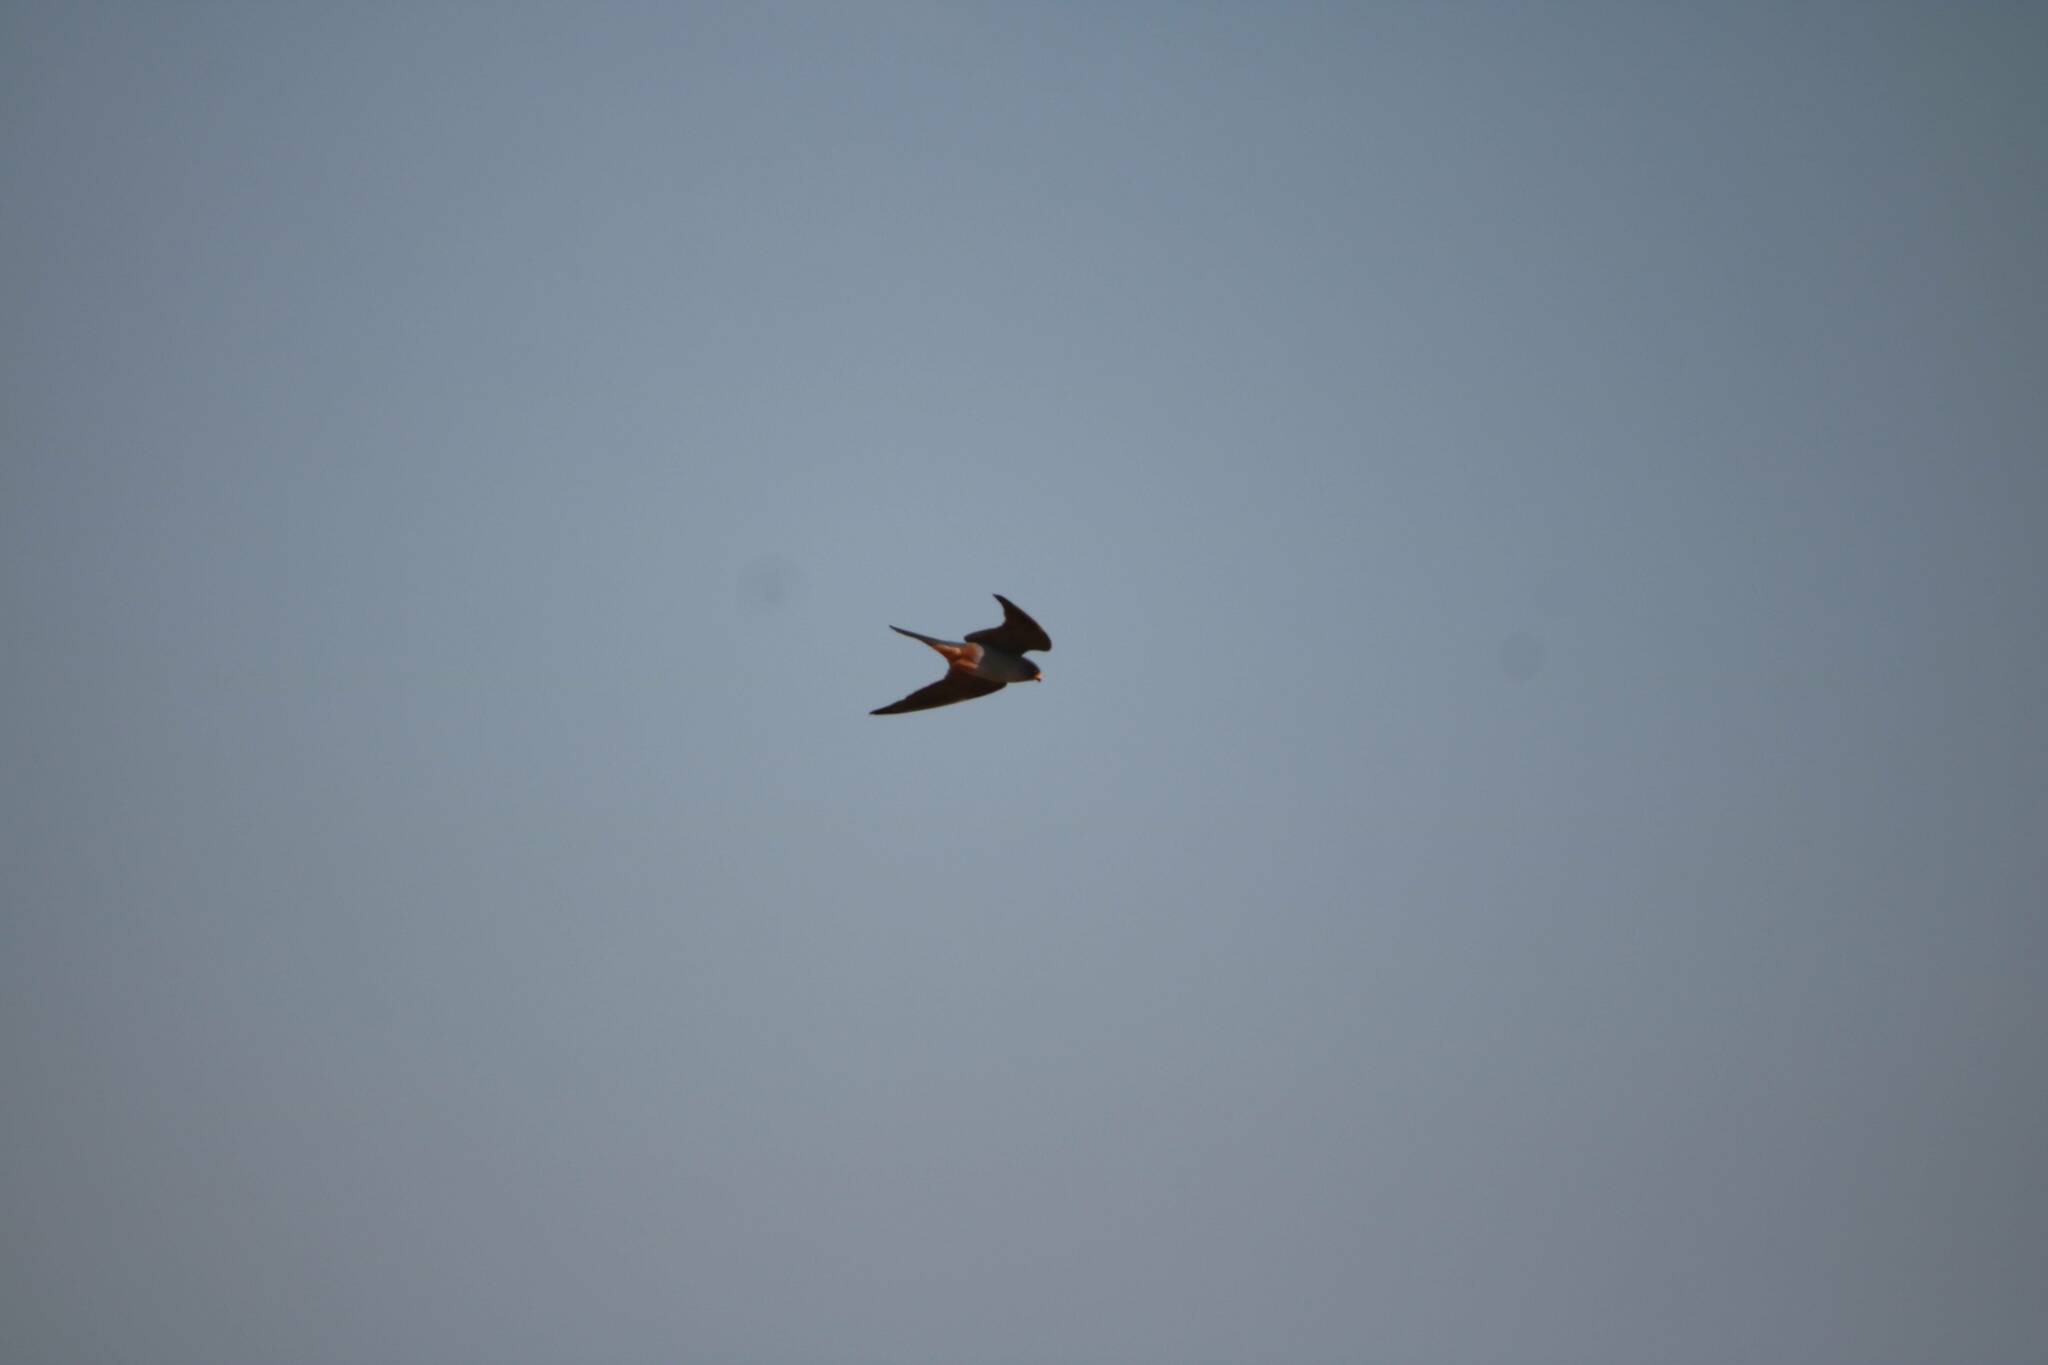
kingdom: Animalia
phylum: Chordata
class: Aves
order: Falconiformes
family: Falconidae
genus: Falco
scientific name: Falco vespertinus
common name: Red-footed falcon
